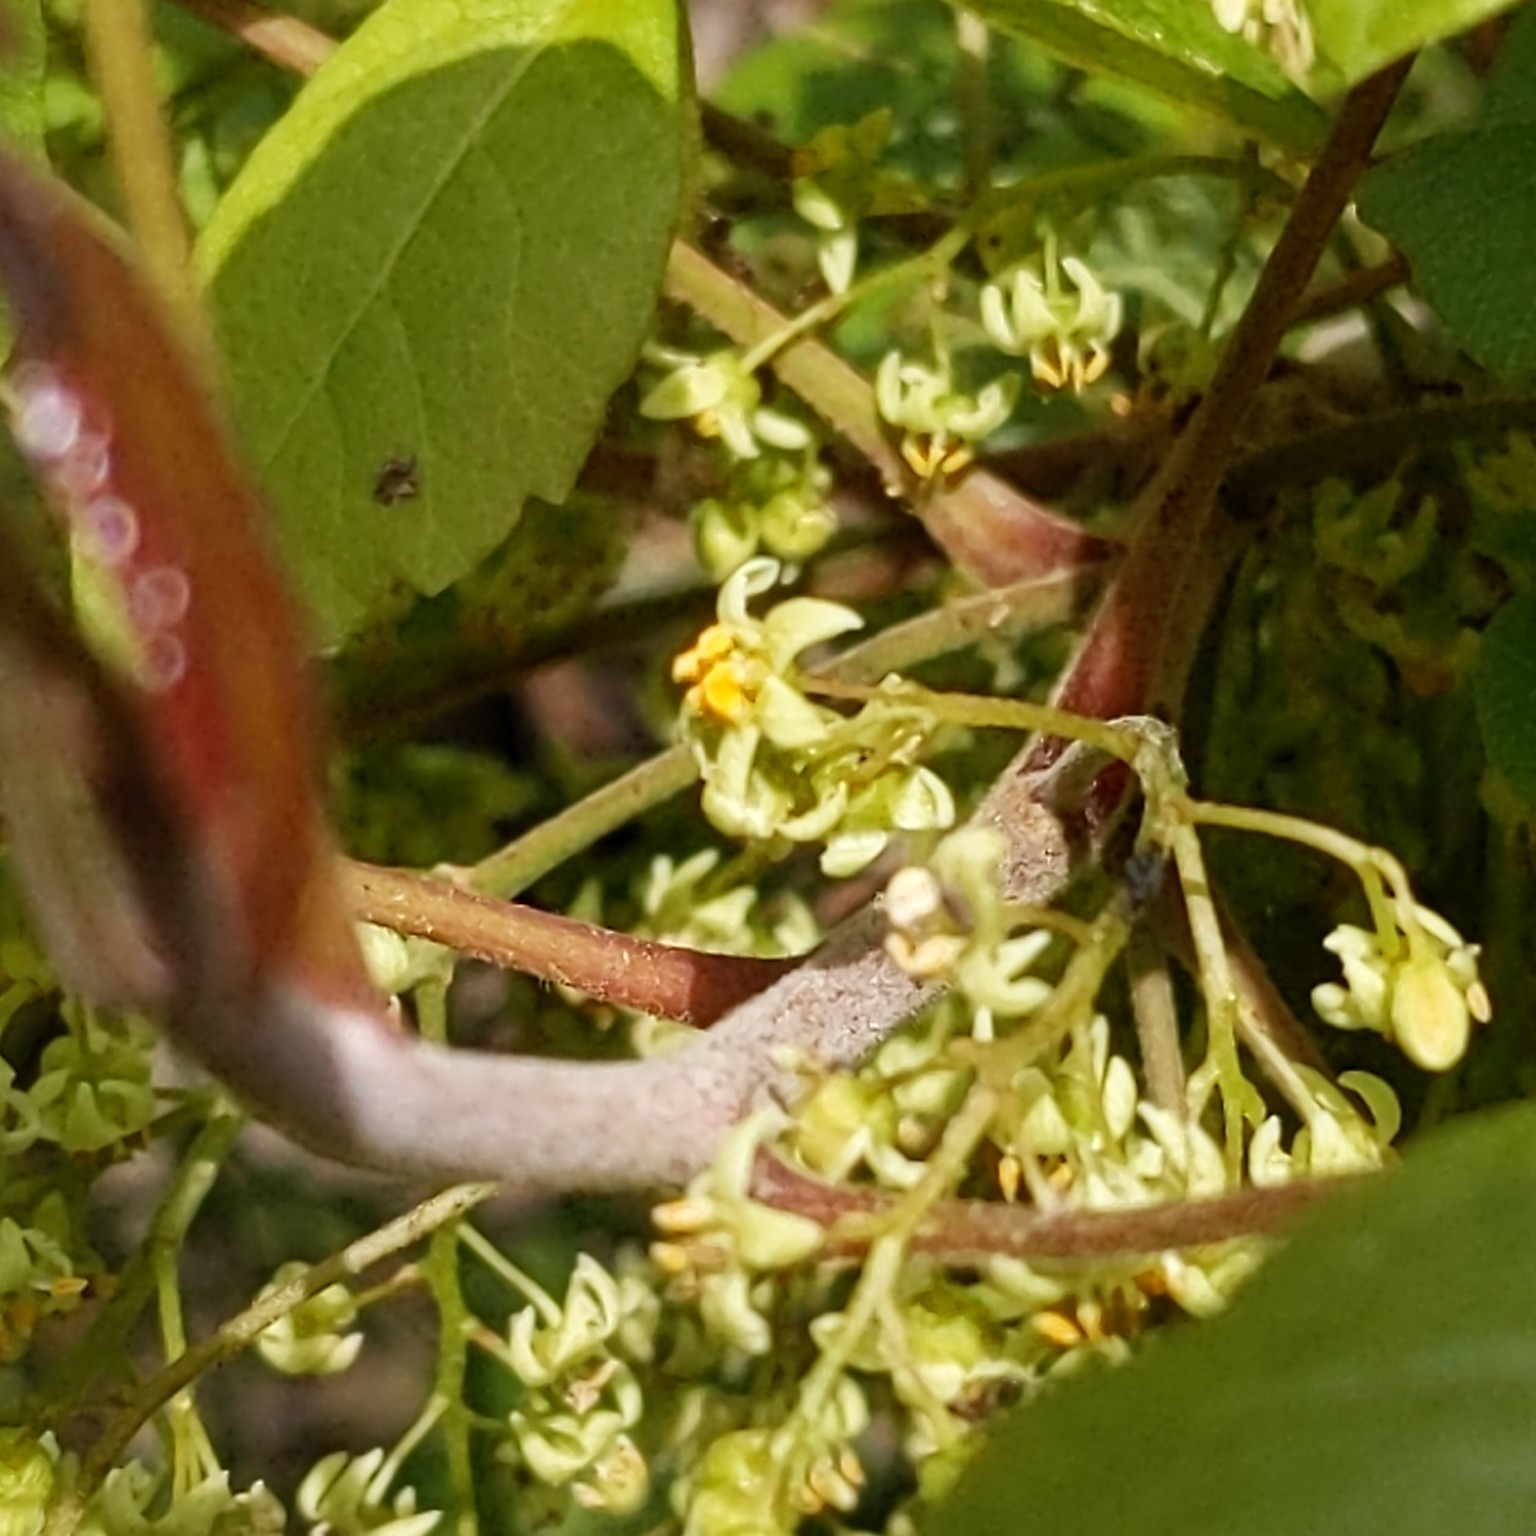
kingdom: Plantae
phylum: Tracheophyta
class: Magnoliopsida
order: Sapindales
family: Anacardiaceae
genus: Toxicodendron
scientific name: Toxicodendron diversilobum
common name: Pacific poison-oak
